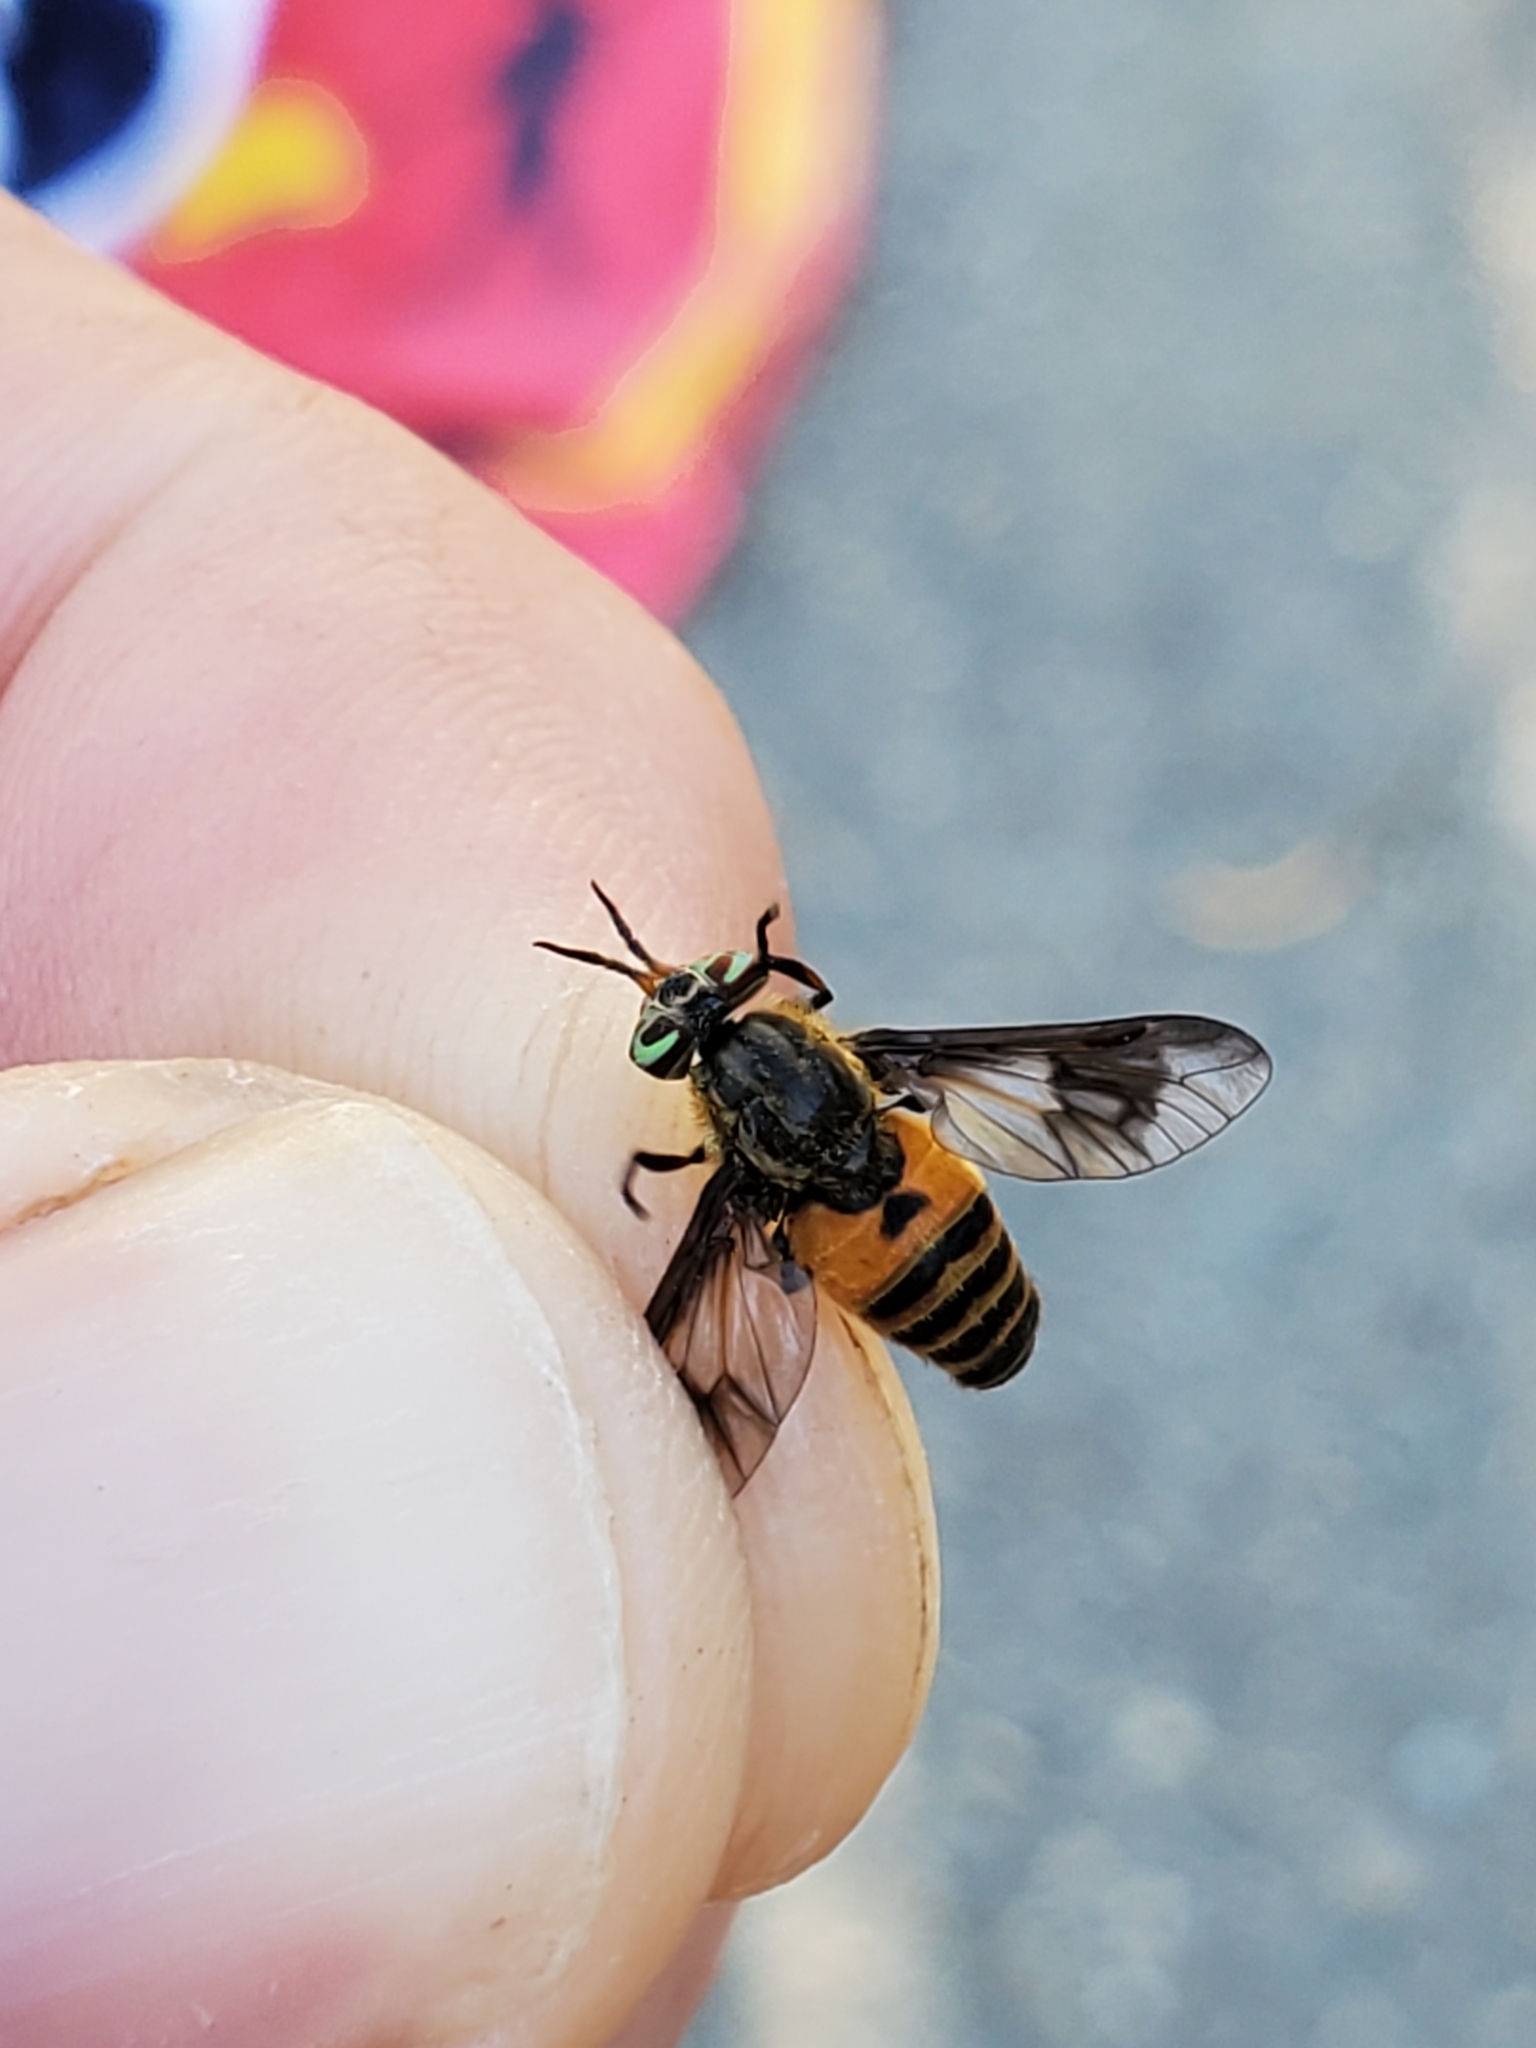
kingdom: Animalia
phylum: Arthropoda
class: Insecta
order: Diptera
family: Tabanidae
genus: Chrysops
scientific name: Chrysops asbestos
